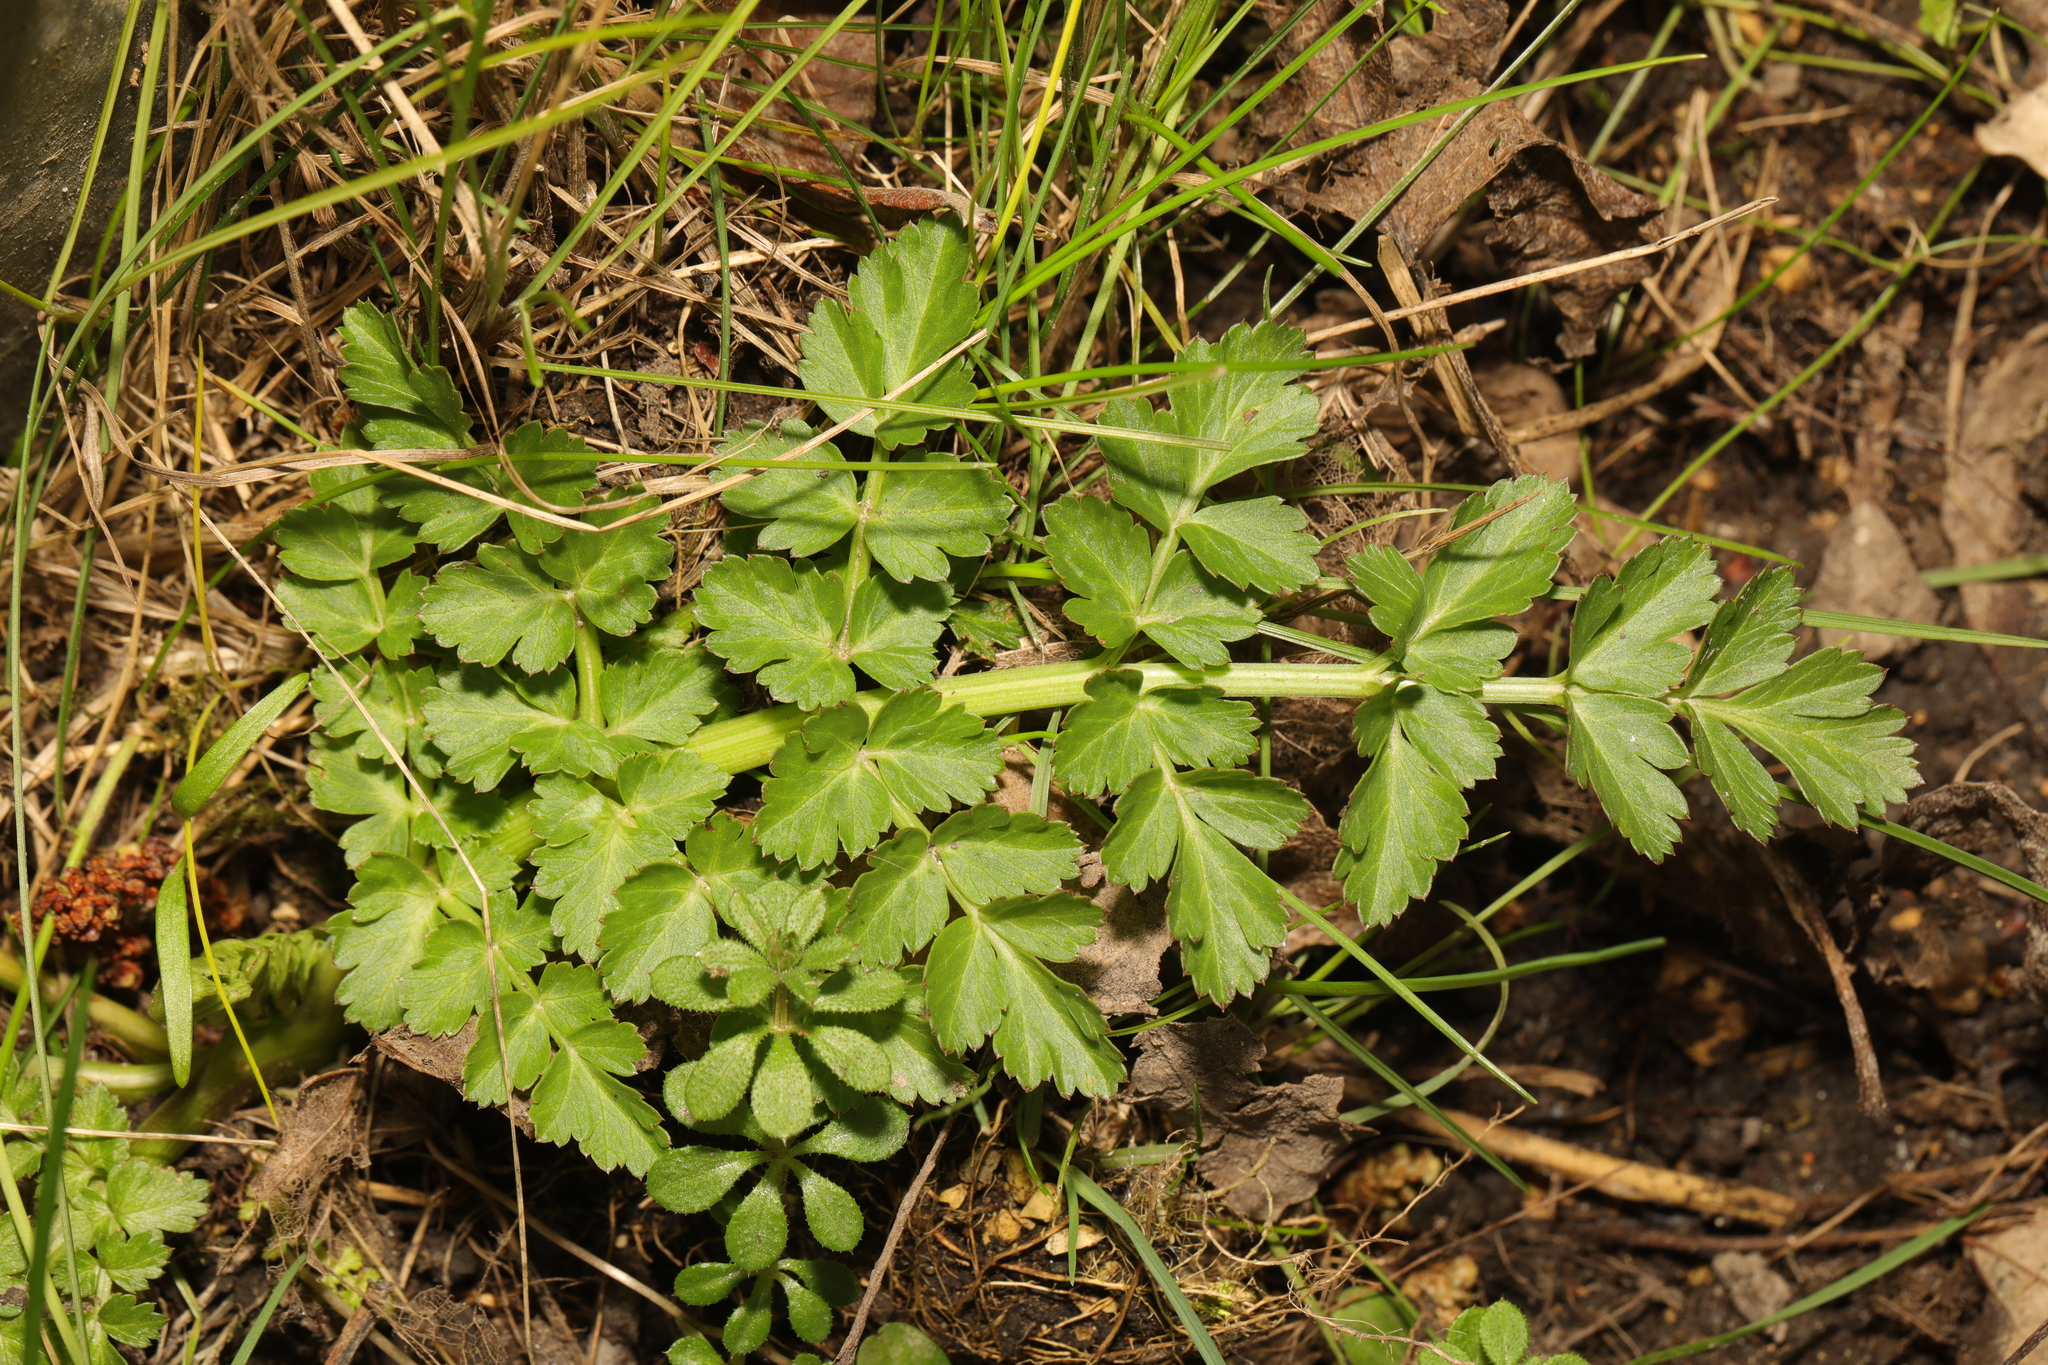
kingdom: Plantae
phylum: Tracheophyta
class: Magnoliopsida
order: Apiales
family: Apiaceae
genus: Oenanthe
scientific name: Oenanthe crocata
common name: Hemlock water-dropwort
